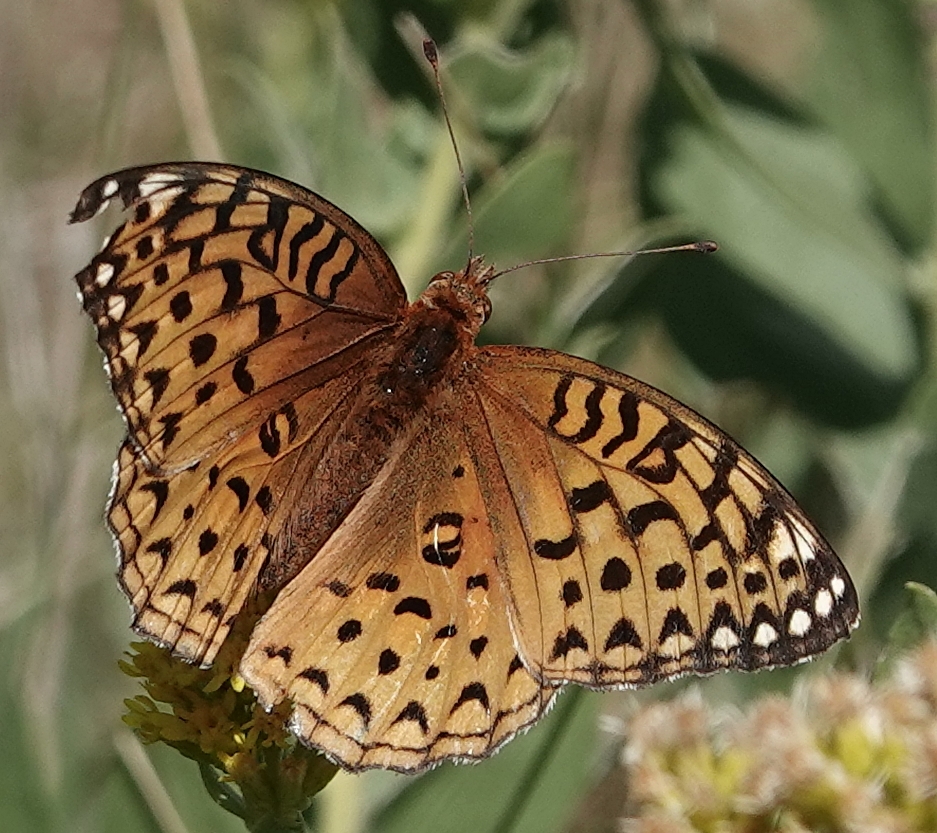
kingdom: Animalia
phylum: Arthropoda
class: Insecta
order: Lepidoptera
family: Nymphalidae
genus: Speyeria
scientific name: Speyeria aphrodite
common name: Aphrodite friitllary
